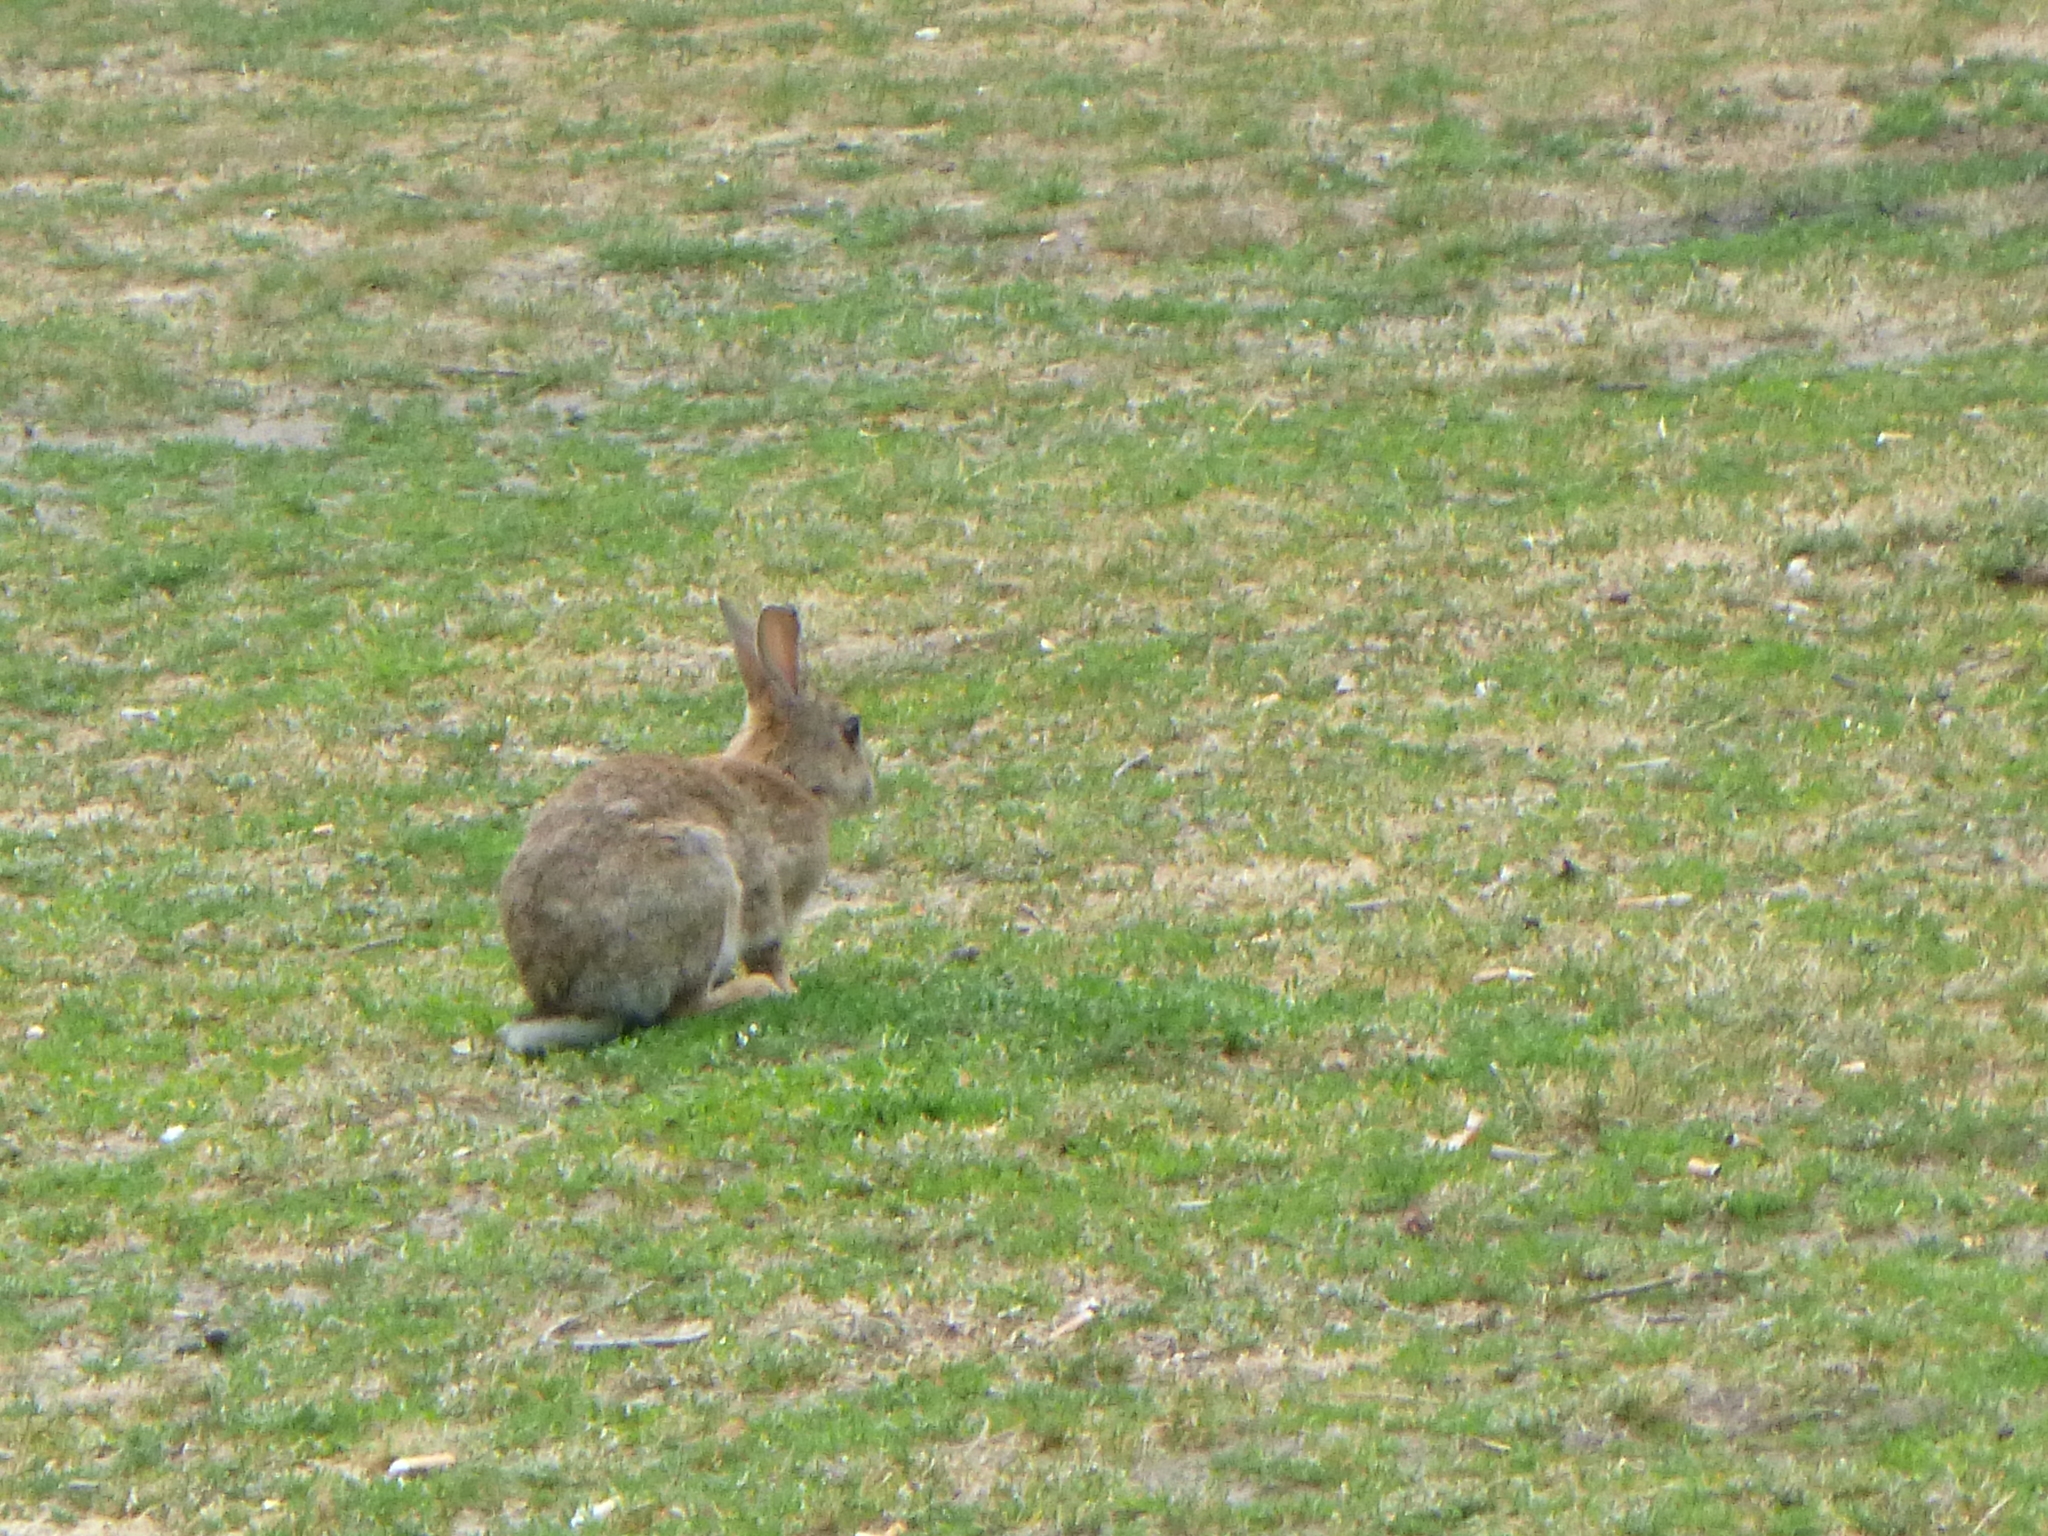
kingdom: Animalia
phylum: Chordata
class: Mammalia
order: Lagomorpha
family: Leporidae
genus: Oryctolagus
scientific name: Oryctolagus cuniculus
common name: European rabbit
